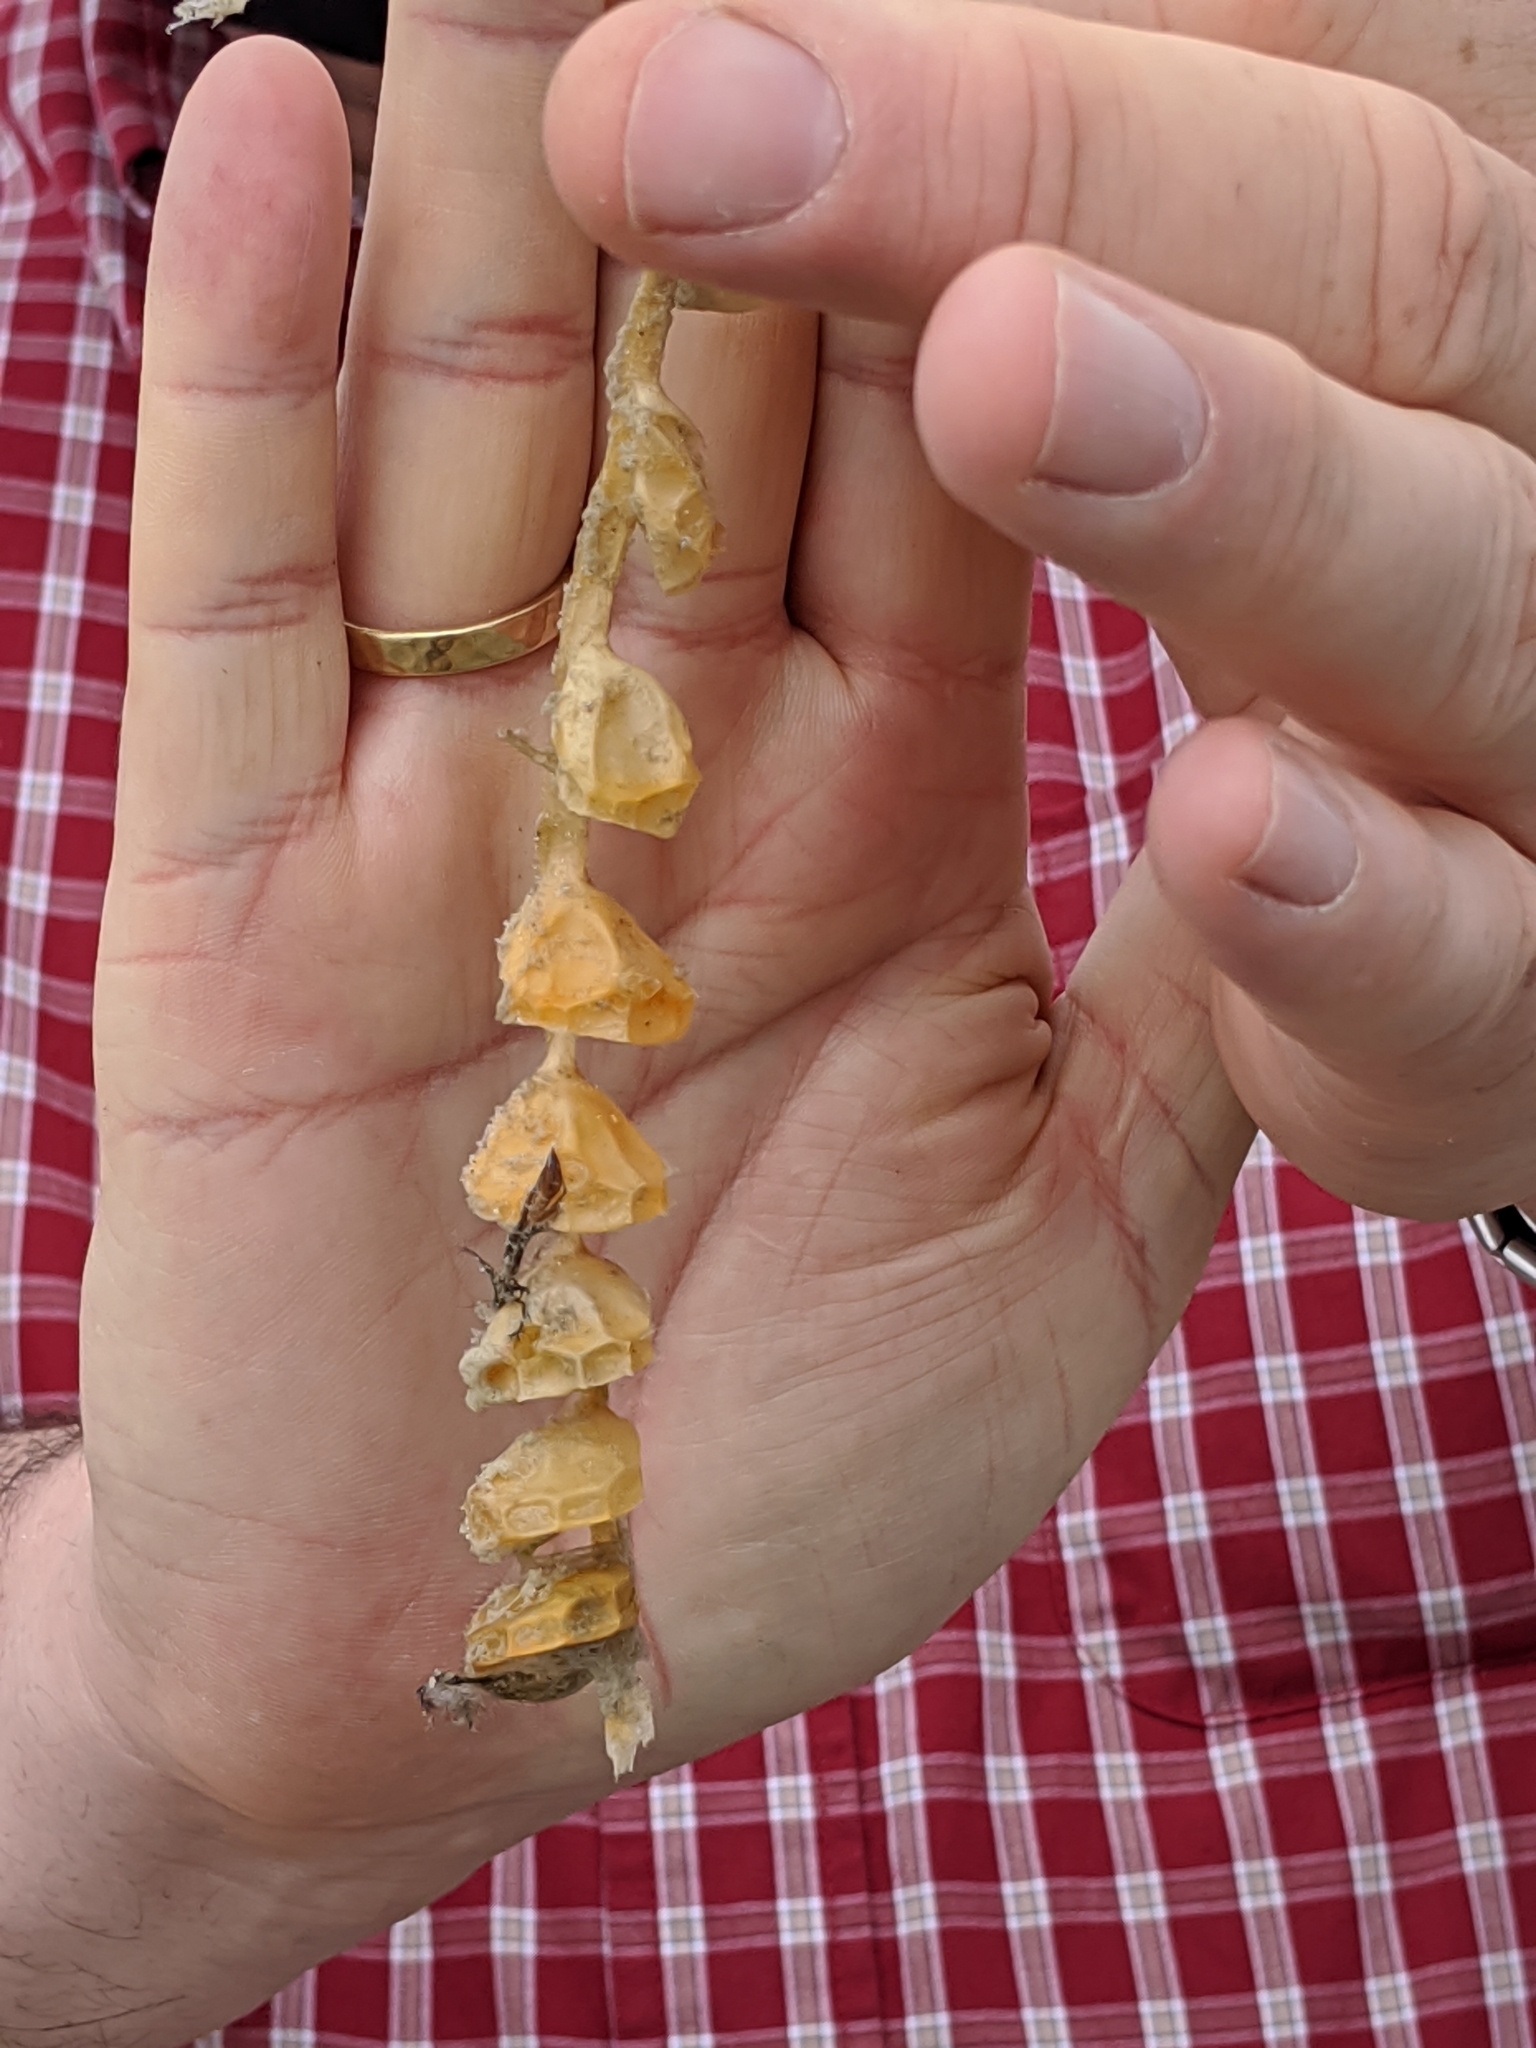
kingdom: Animalia
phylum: Mollusca
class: Gastropoda
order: Neogastropoda
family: Busyconidae
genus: Busycon
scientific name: Busycon carica
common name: Knobbed whelk
